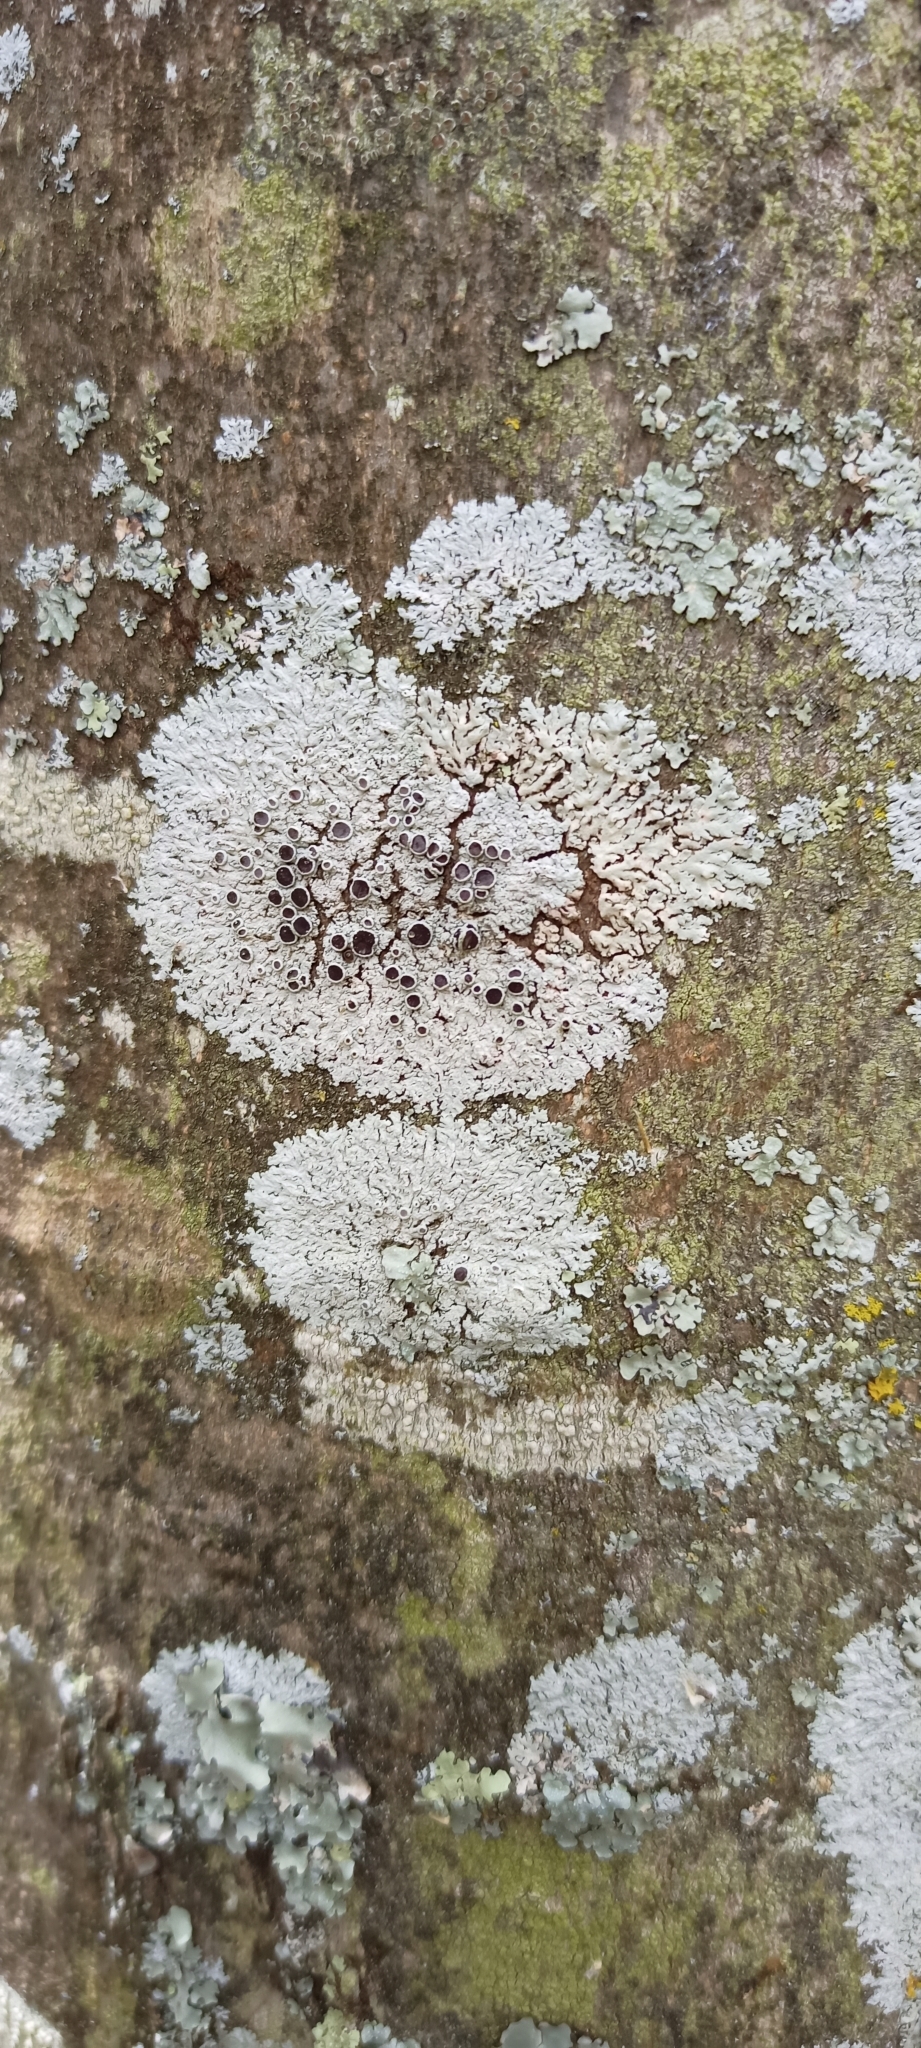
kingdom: Fungi
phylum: Ascomycota
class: Lecanoromycetes
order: Caliciales
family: Physciaceae
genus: Physcia
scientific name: Physcia clementei
